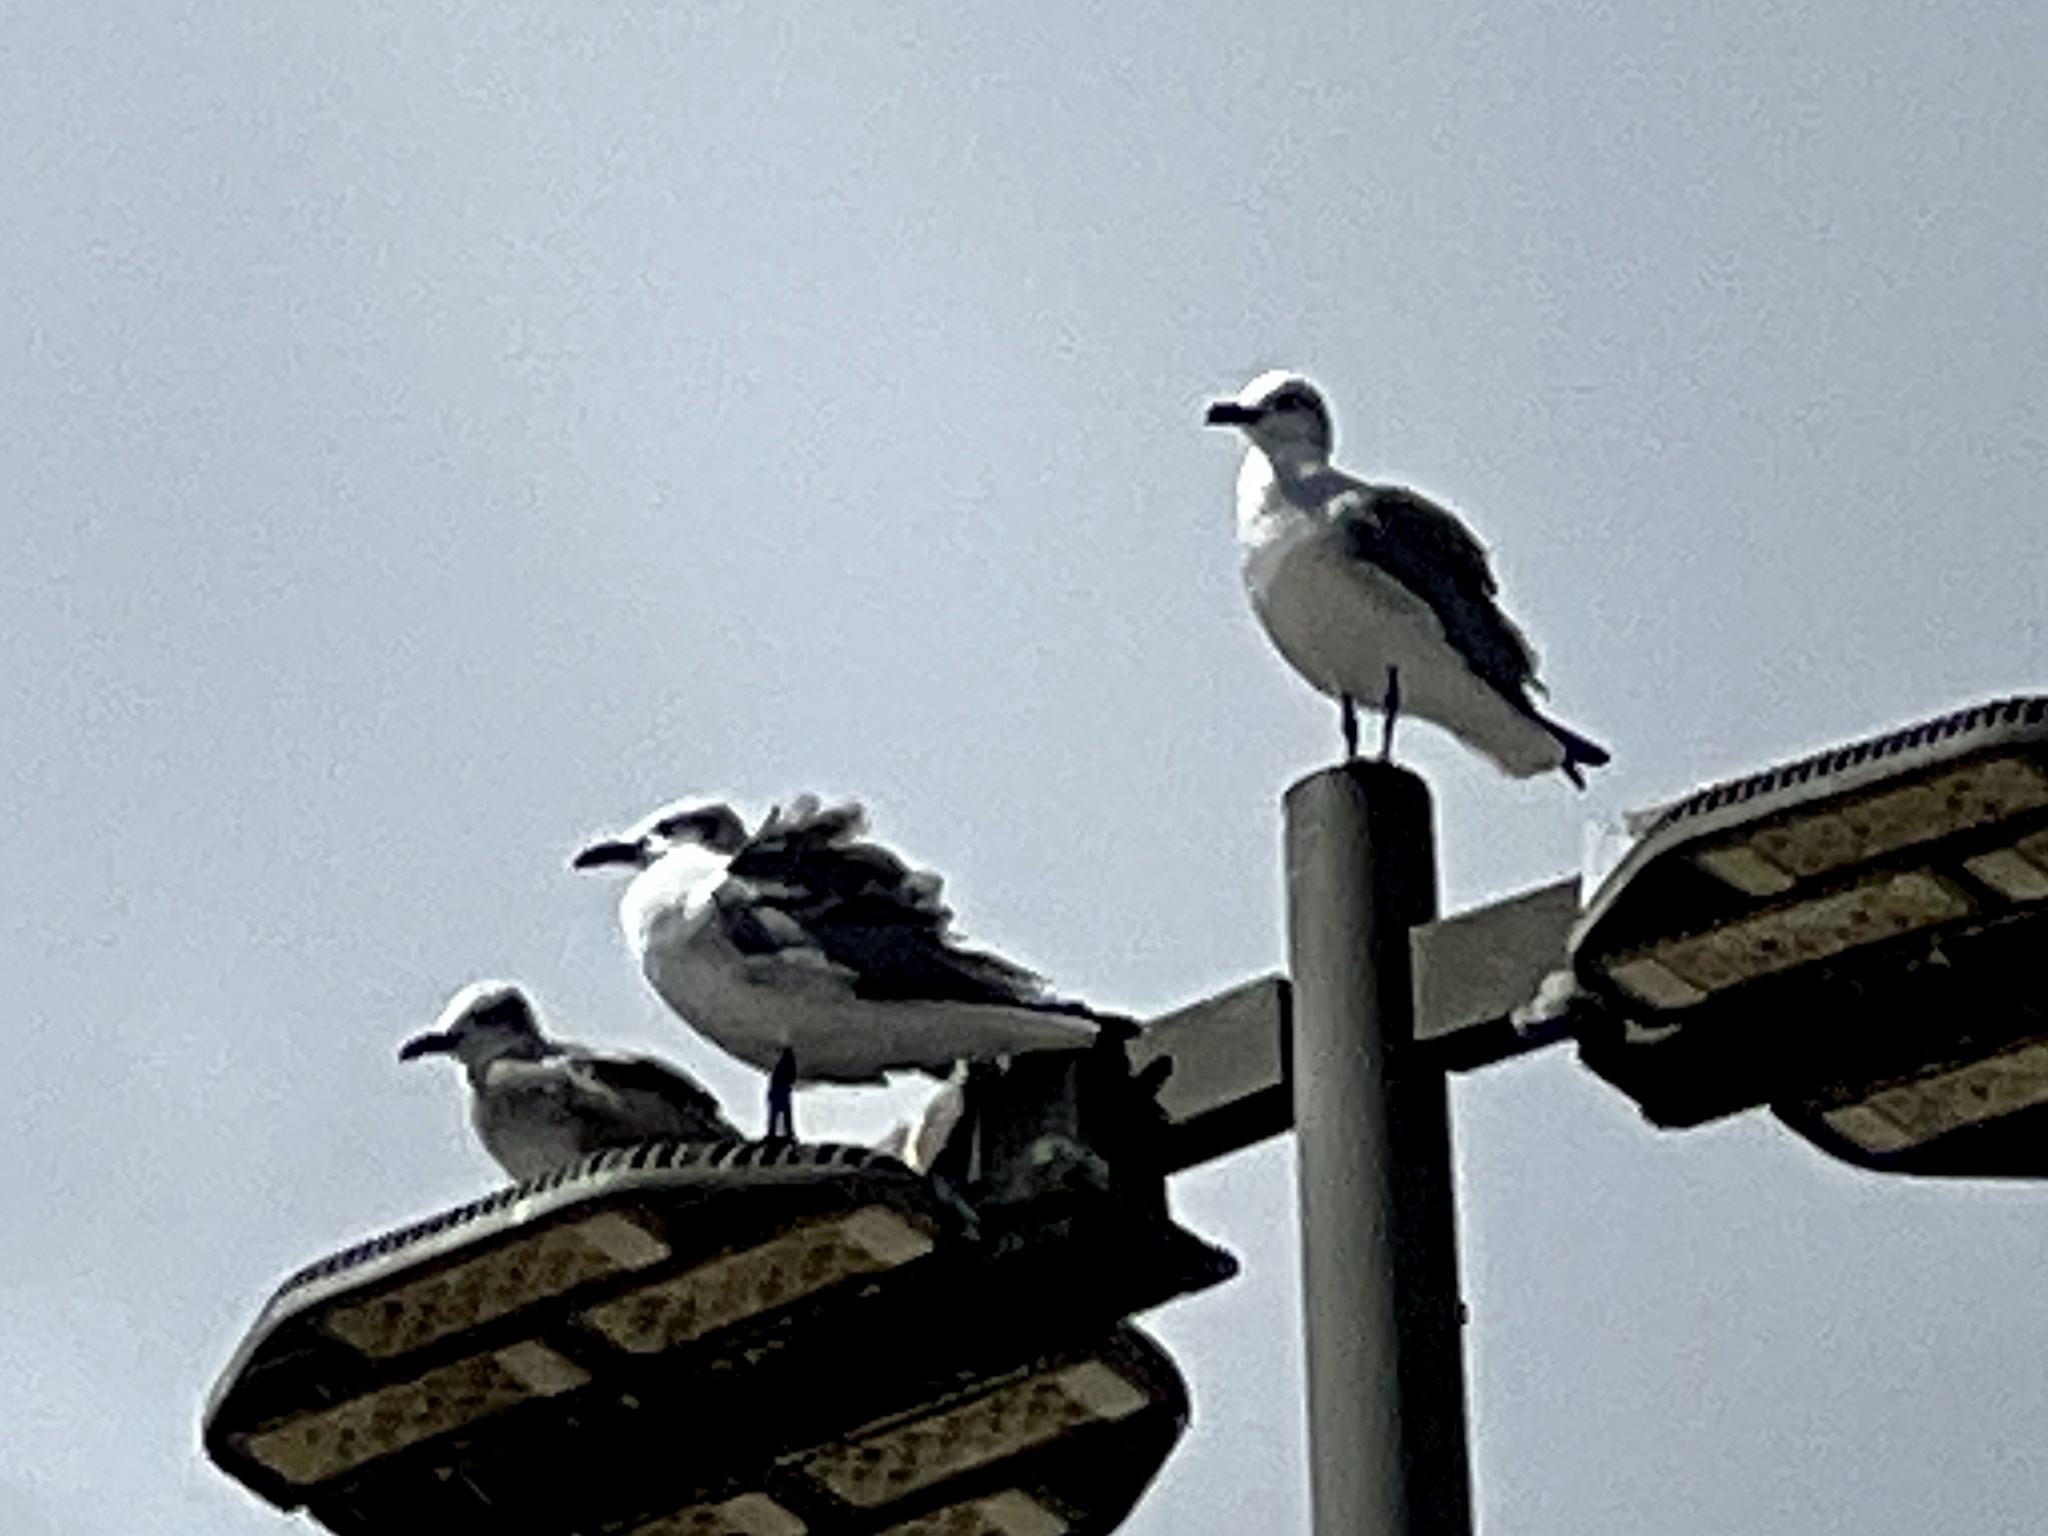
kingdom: Animalia
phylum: Chordata
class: Aves
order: Charadriiformes
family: Laridae
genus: Leucophaeus
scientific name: Leucophaeus atricilla
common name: Laughing gull
